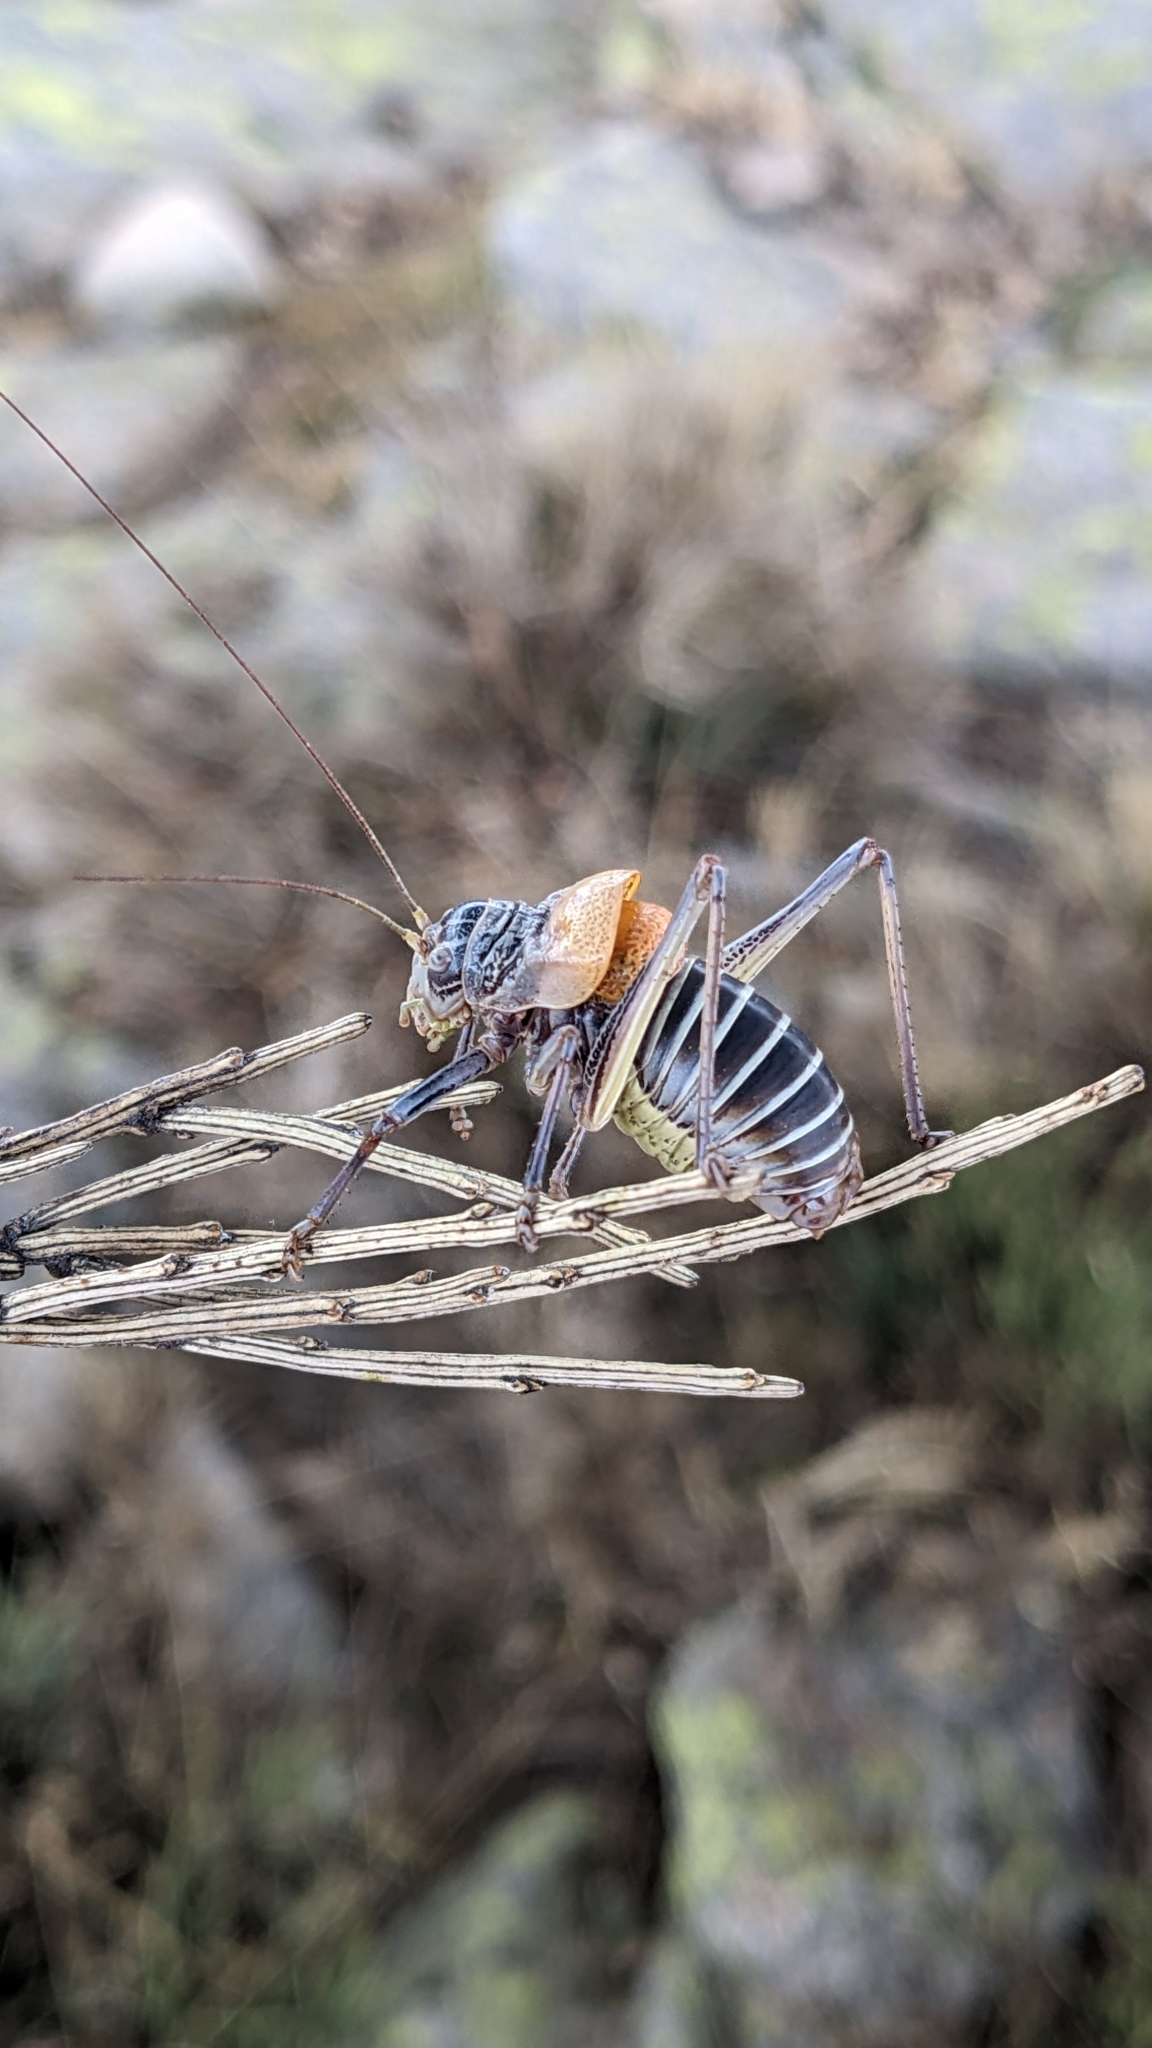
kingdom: Animalia
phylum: Arthropoda
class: Insecta
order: Orthoptera
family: Tettigoniidae
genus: Lluciapomaresius
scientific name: Lluciapomaresius stalii
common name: Stal's saddle bush-cricket
